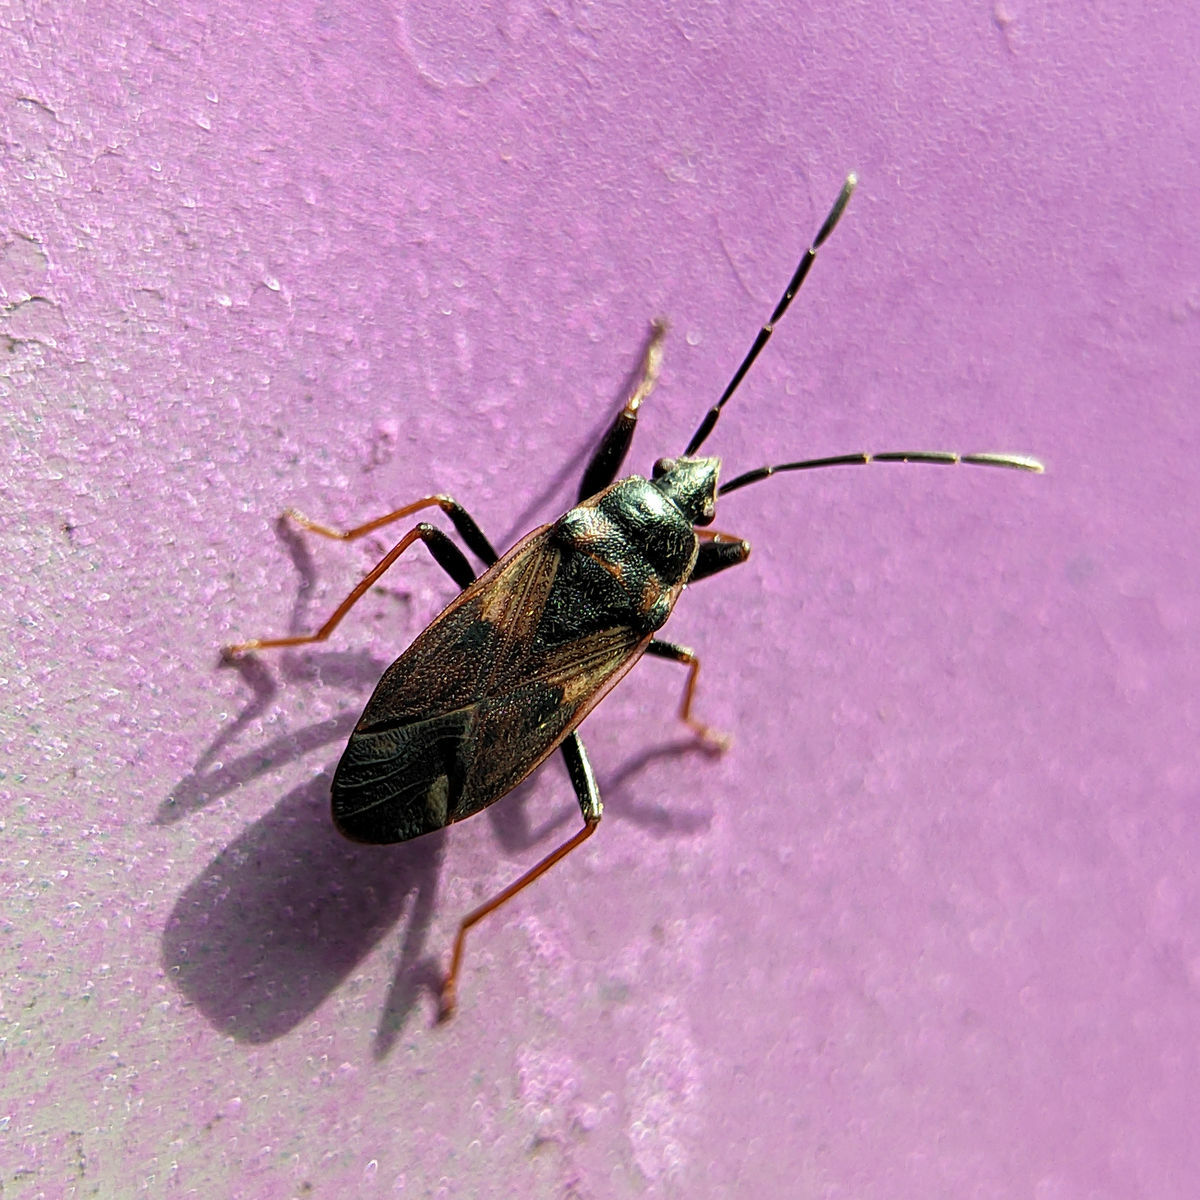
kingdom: Animalia
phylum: Arthropoda
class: Insecta
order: Hemiptera
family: Rhyparochromidae
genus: Eremocoris
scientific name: Eremocoris fenestratus
